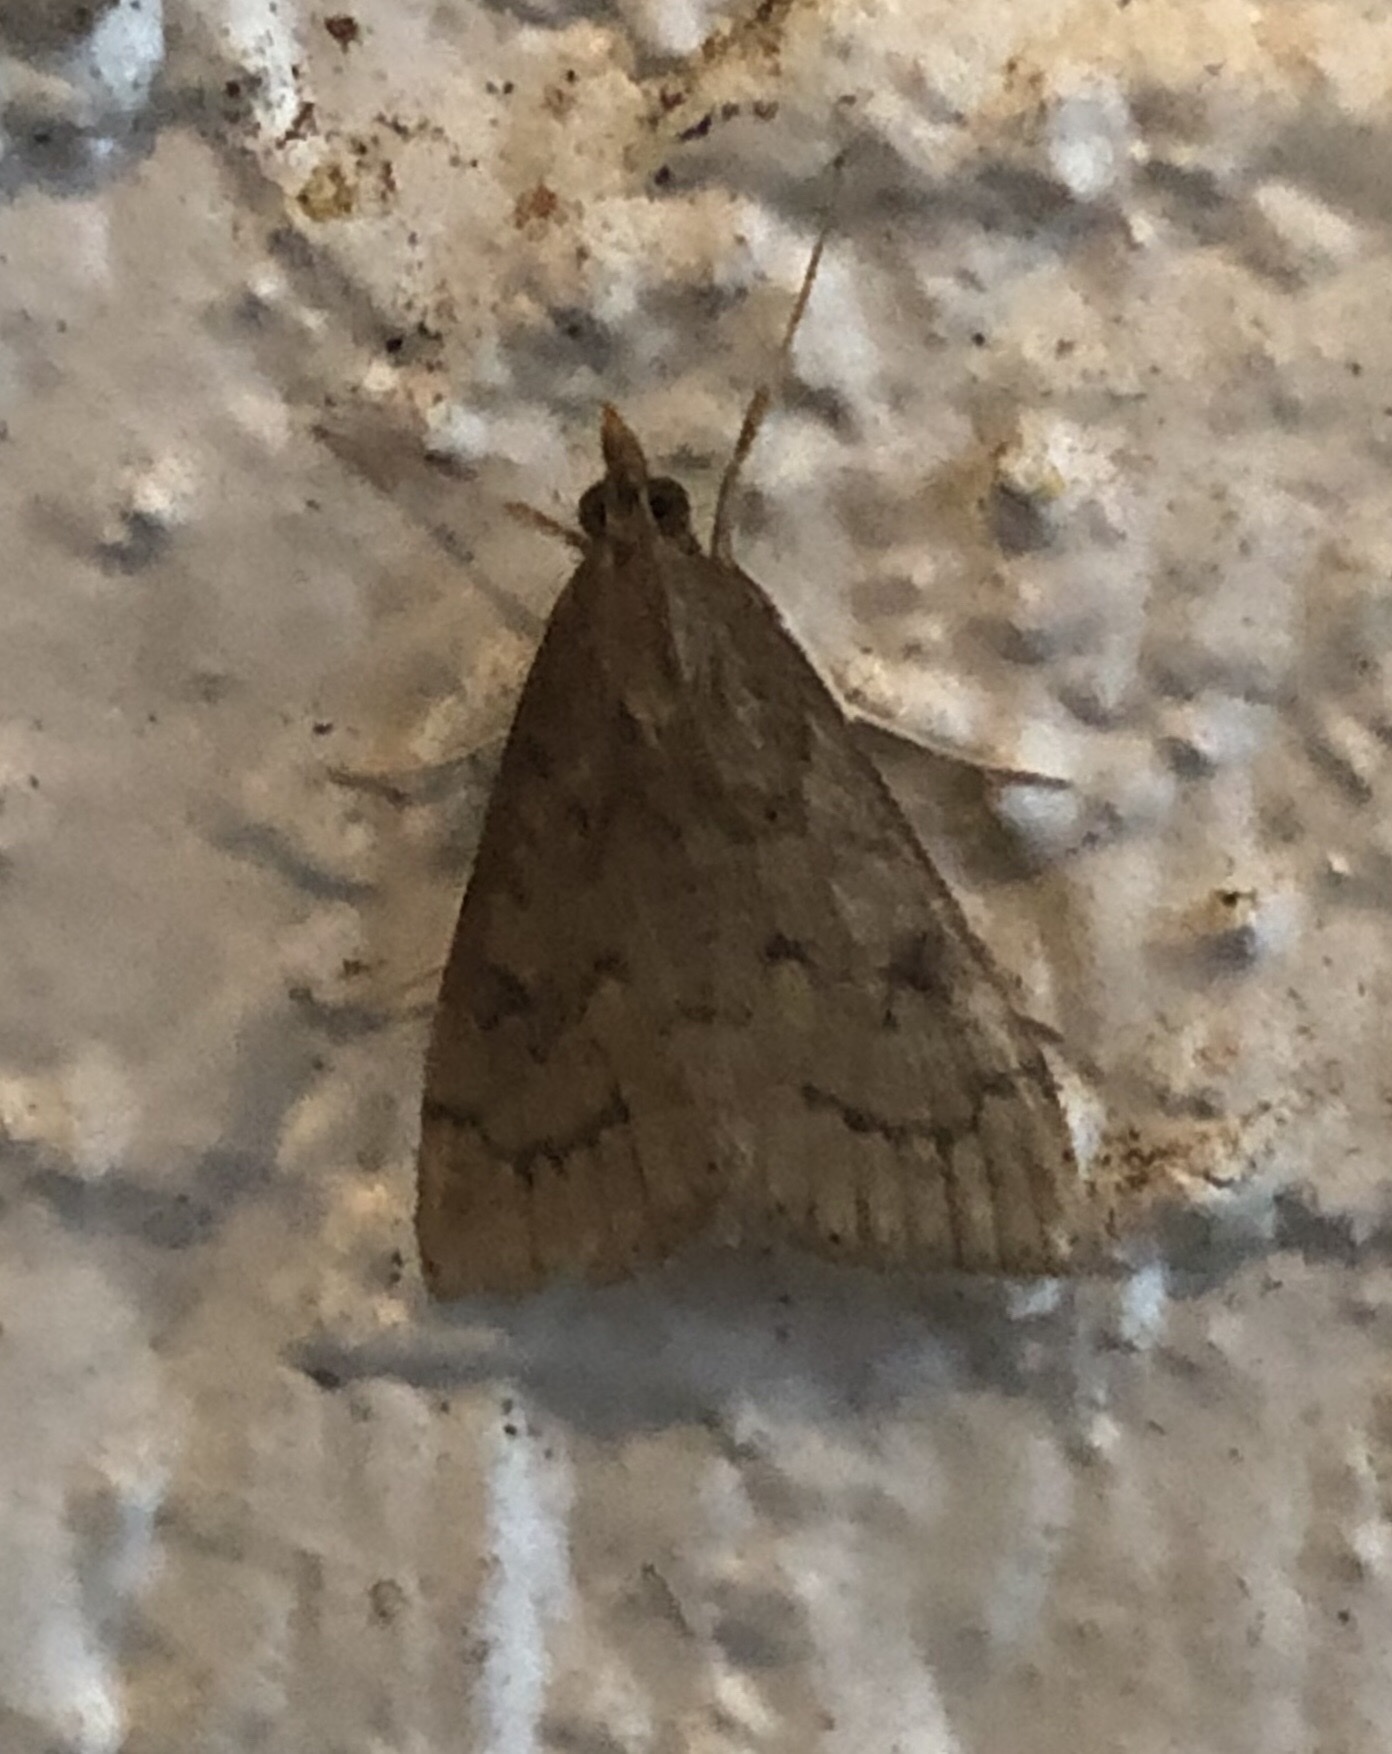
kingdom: Animalia
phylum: Arthropoda
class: Insecta
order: Lepidoptera
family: Crambidae
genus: Udea
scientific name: Udea rubigalis
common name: Celery leaftier moth
